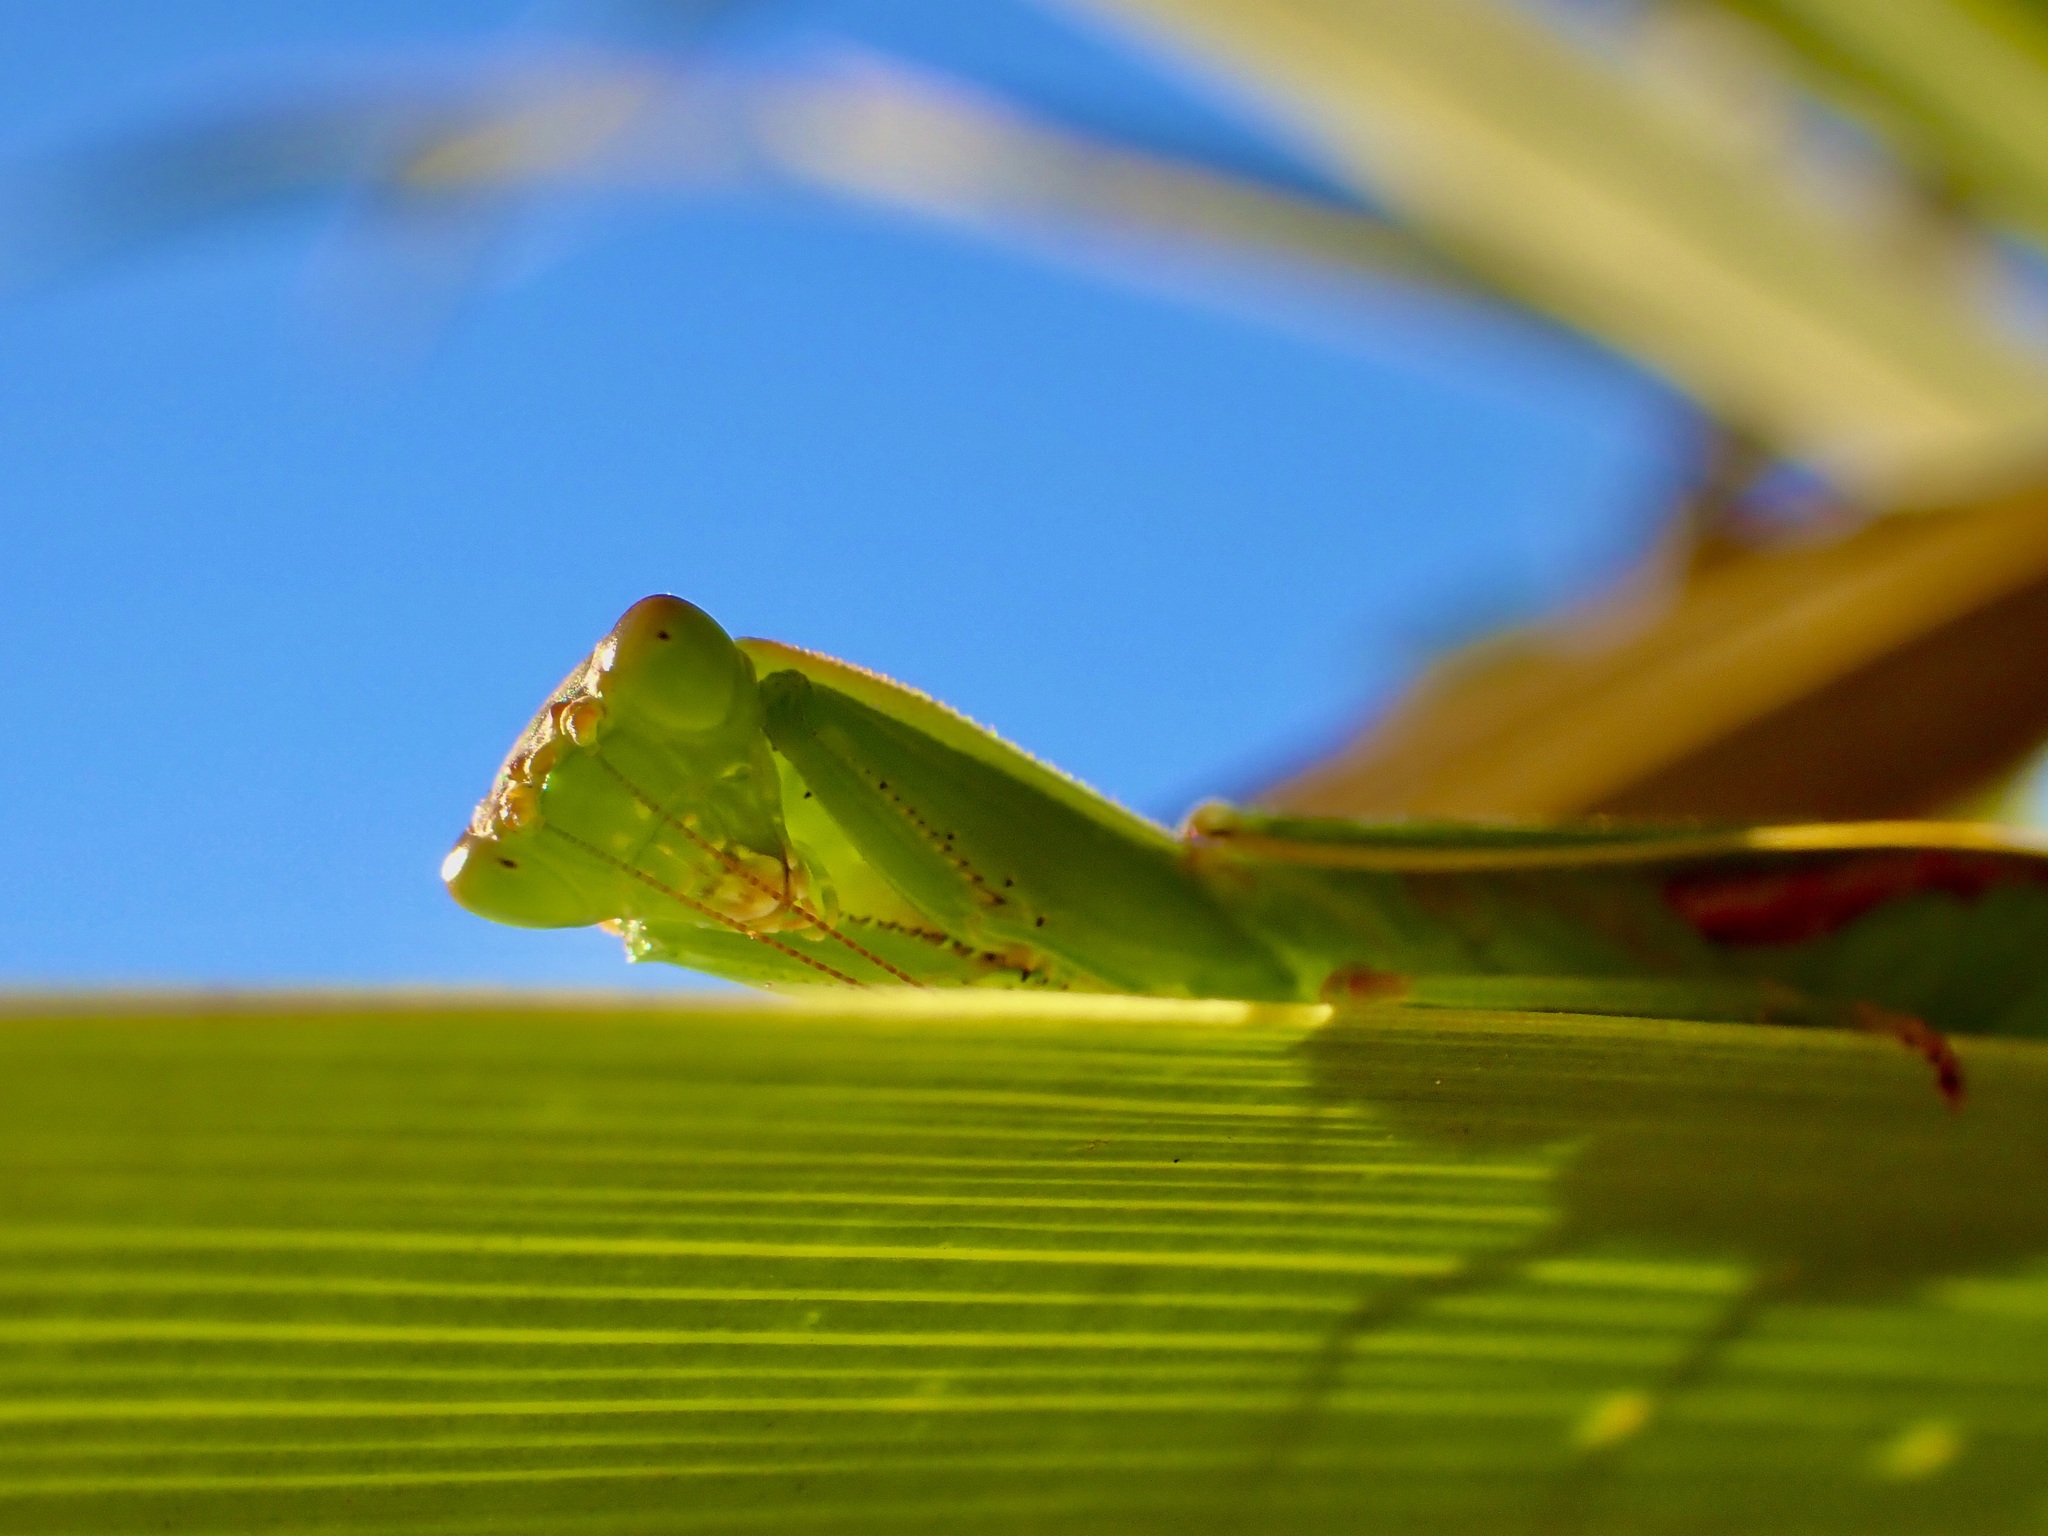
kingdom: Animalia
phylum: Arthropoda
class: Insecta
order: Mantodea
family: Mantidae
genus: Orthodera
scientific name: Orthodera novaezealandiae
